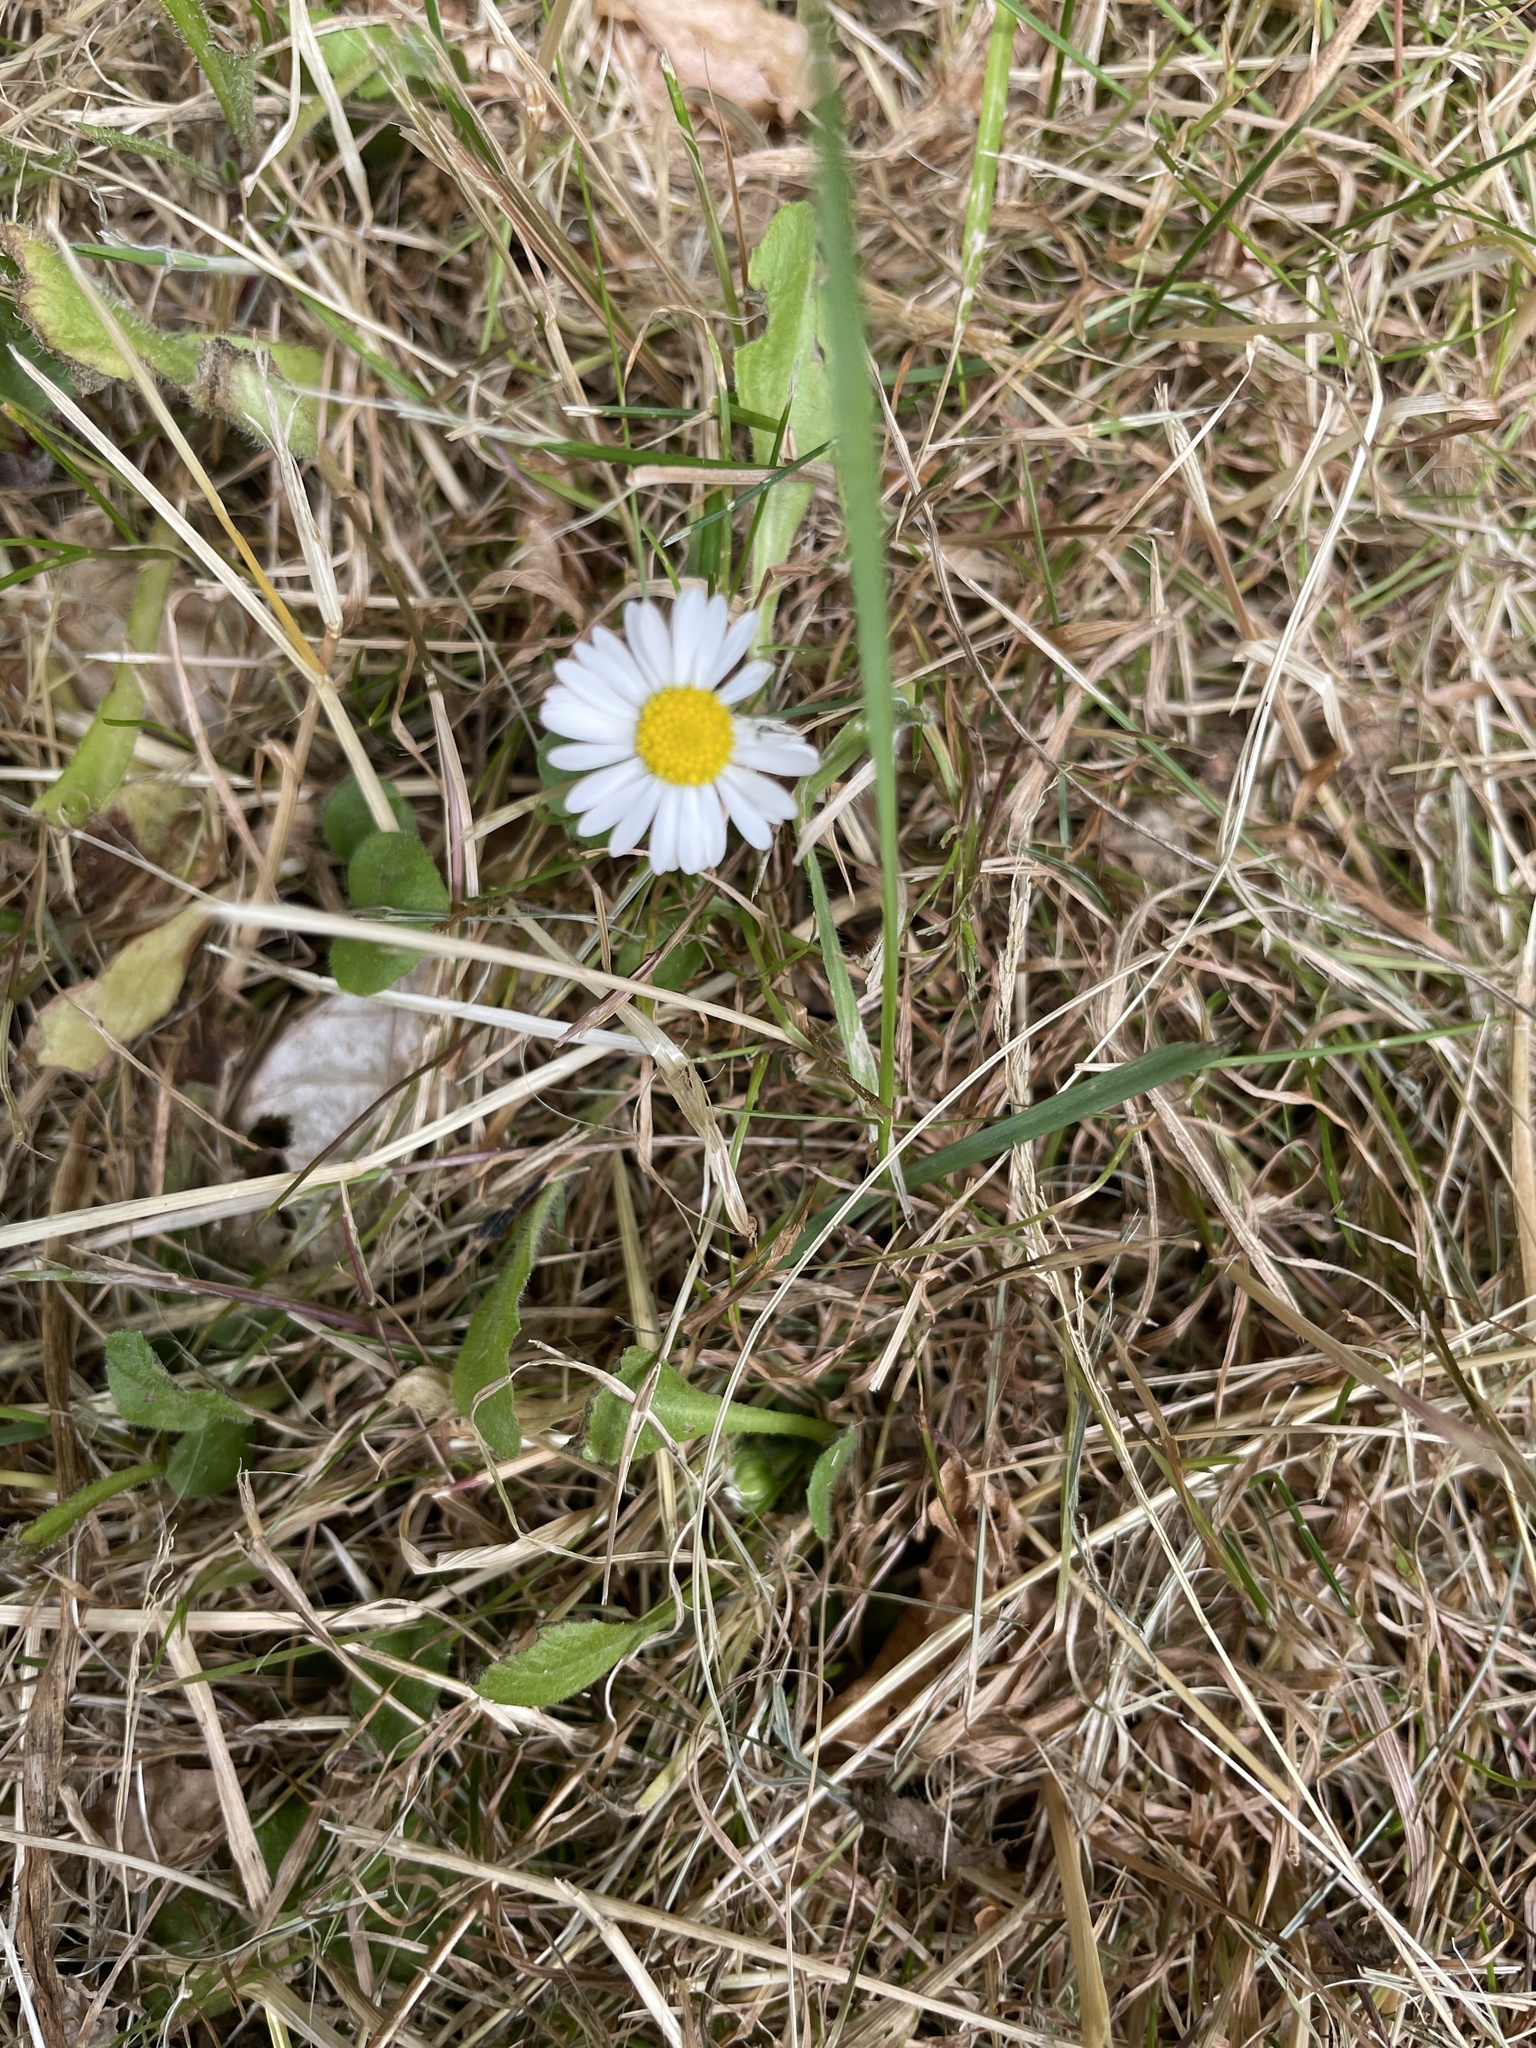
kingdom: Plantae
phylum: Tracheophyta
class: Magnoliopsida
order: Asterales
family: Asteraceae
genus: Bellis
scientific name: Bellis perennis
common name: Lawndaisy
